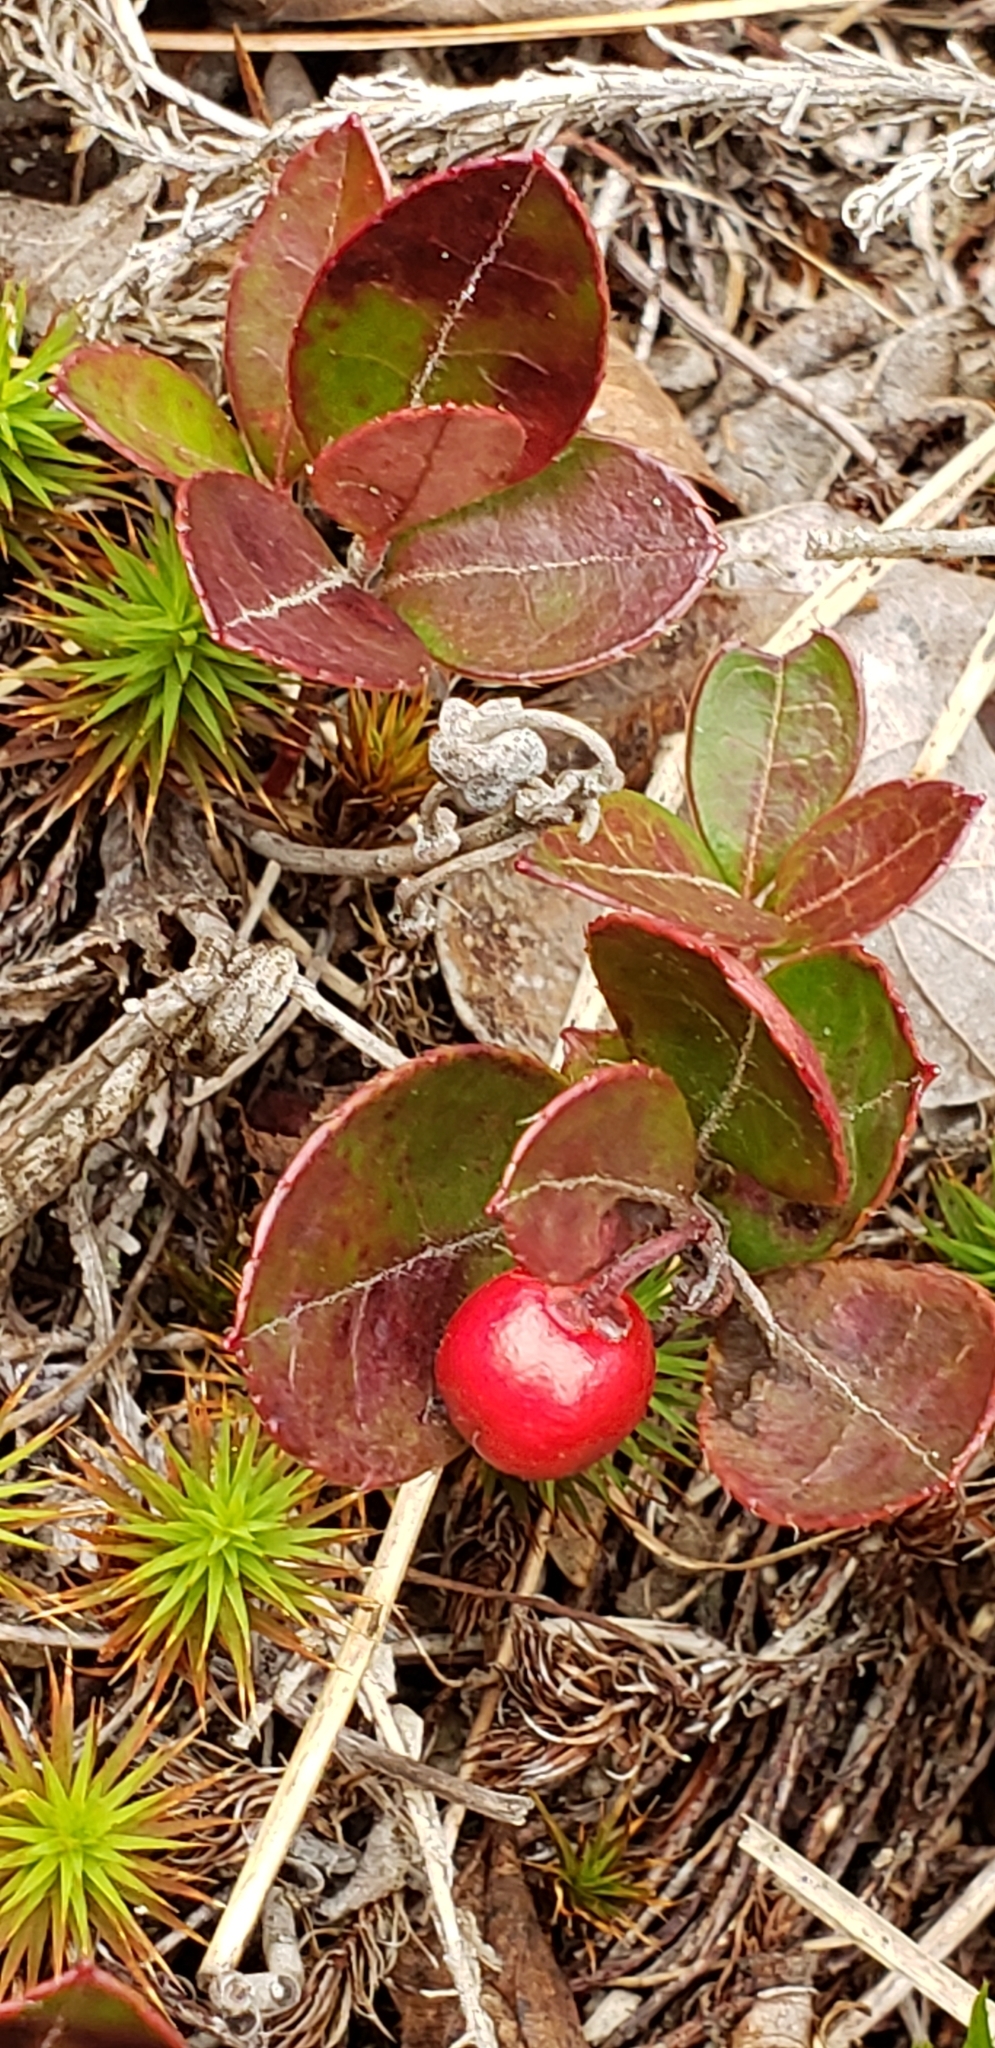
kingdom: Plantae
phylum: Tracheophyta
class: Magnoliopsida
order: Ericales
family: Ericaceae
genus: Gaultheria
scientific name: Gaultheria procumbens
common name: Checkerberry
